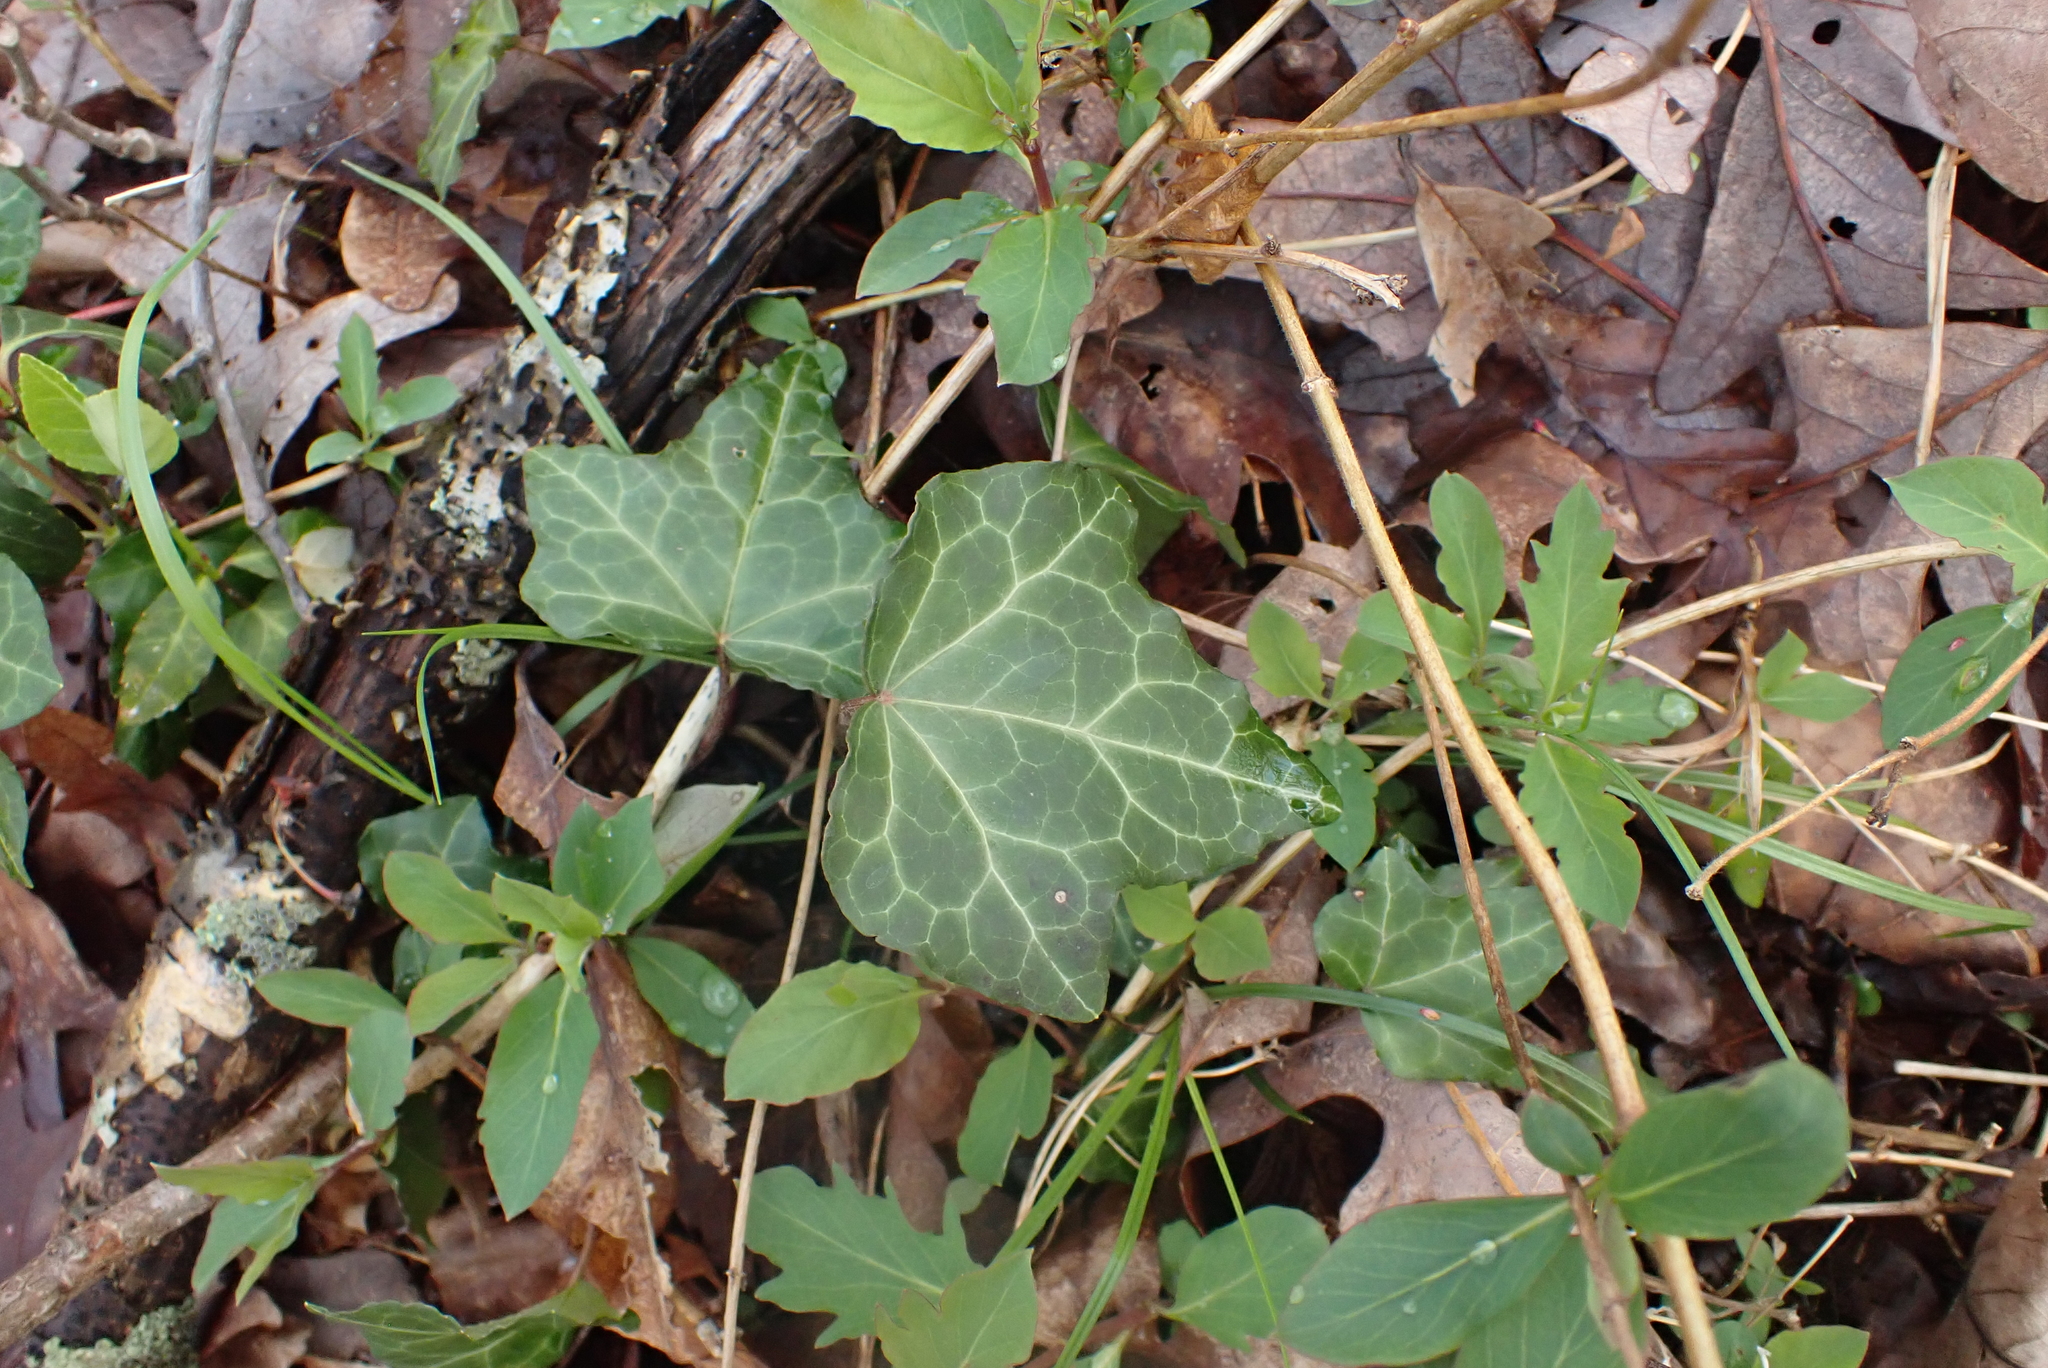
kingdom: Plantae
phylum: Tracheophyta
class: Magnoliopsida
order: Apiales
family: Araliaceae
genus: Hedera
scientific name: Hedera helix
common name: Ivy
